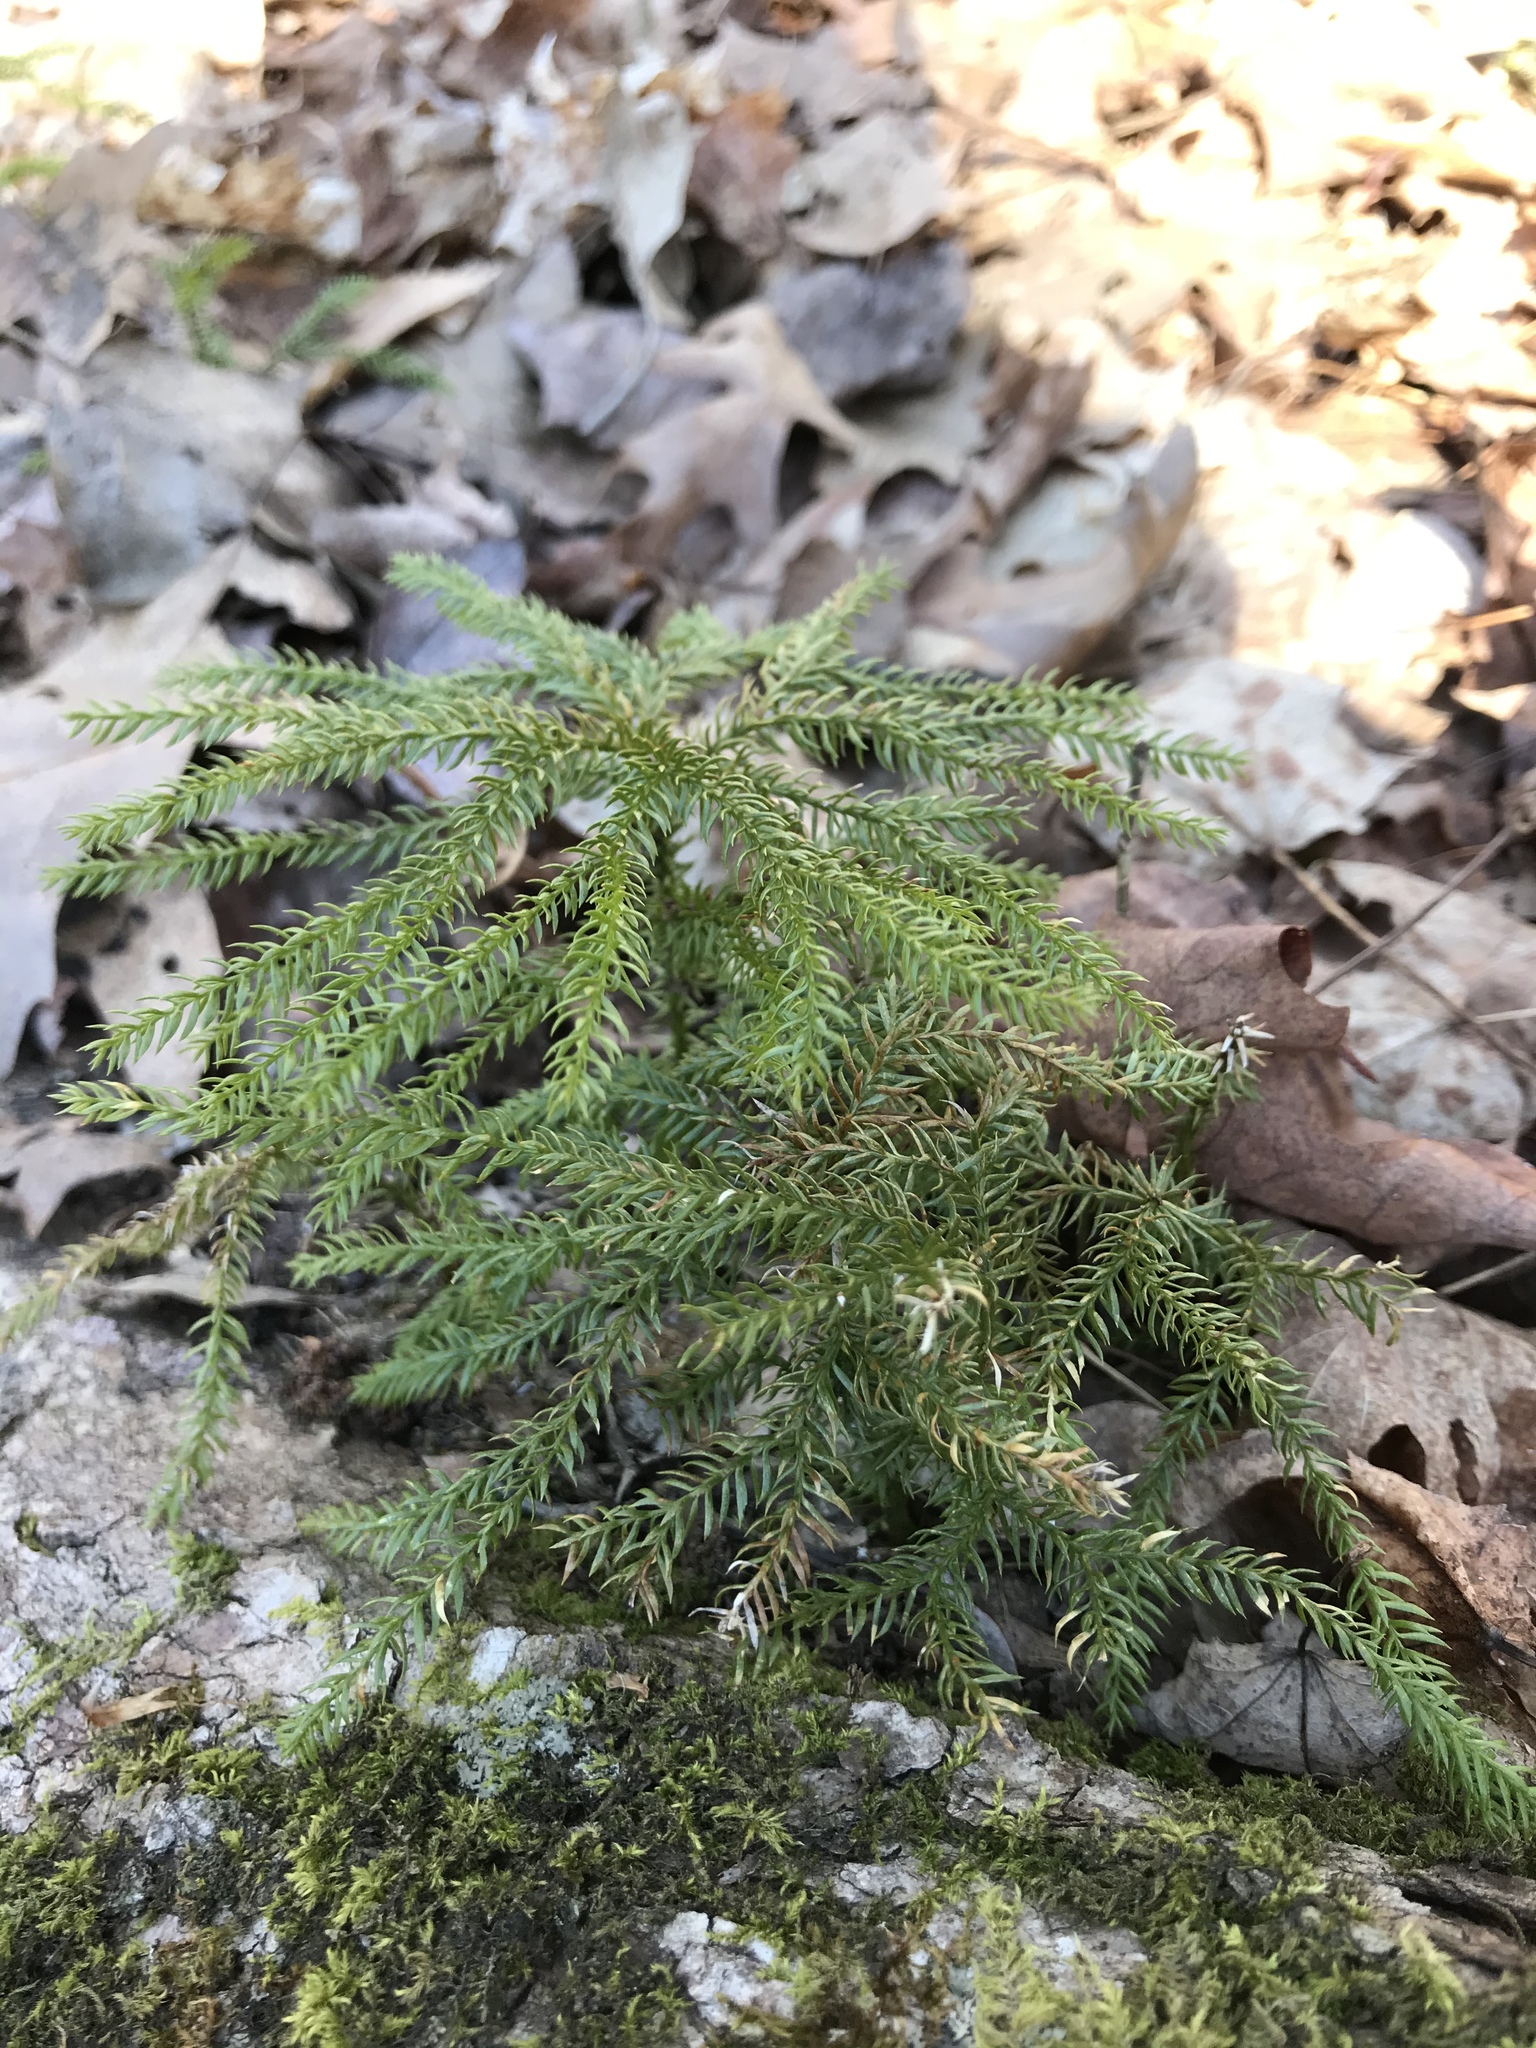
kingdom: Plantae
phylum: Tracheophyta
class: Lycopodiopsida
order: Lycopodiales
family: Lycopodiaceae
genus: Dendrolycopodium
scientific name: Dendrolycopodium dendroideum
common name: Northern tree-clubmoss
